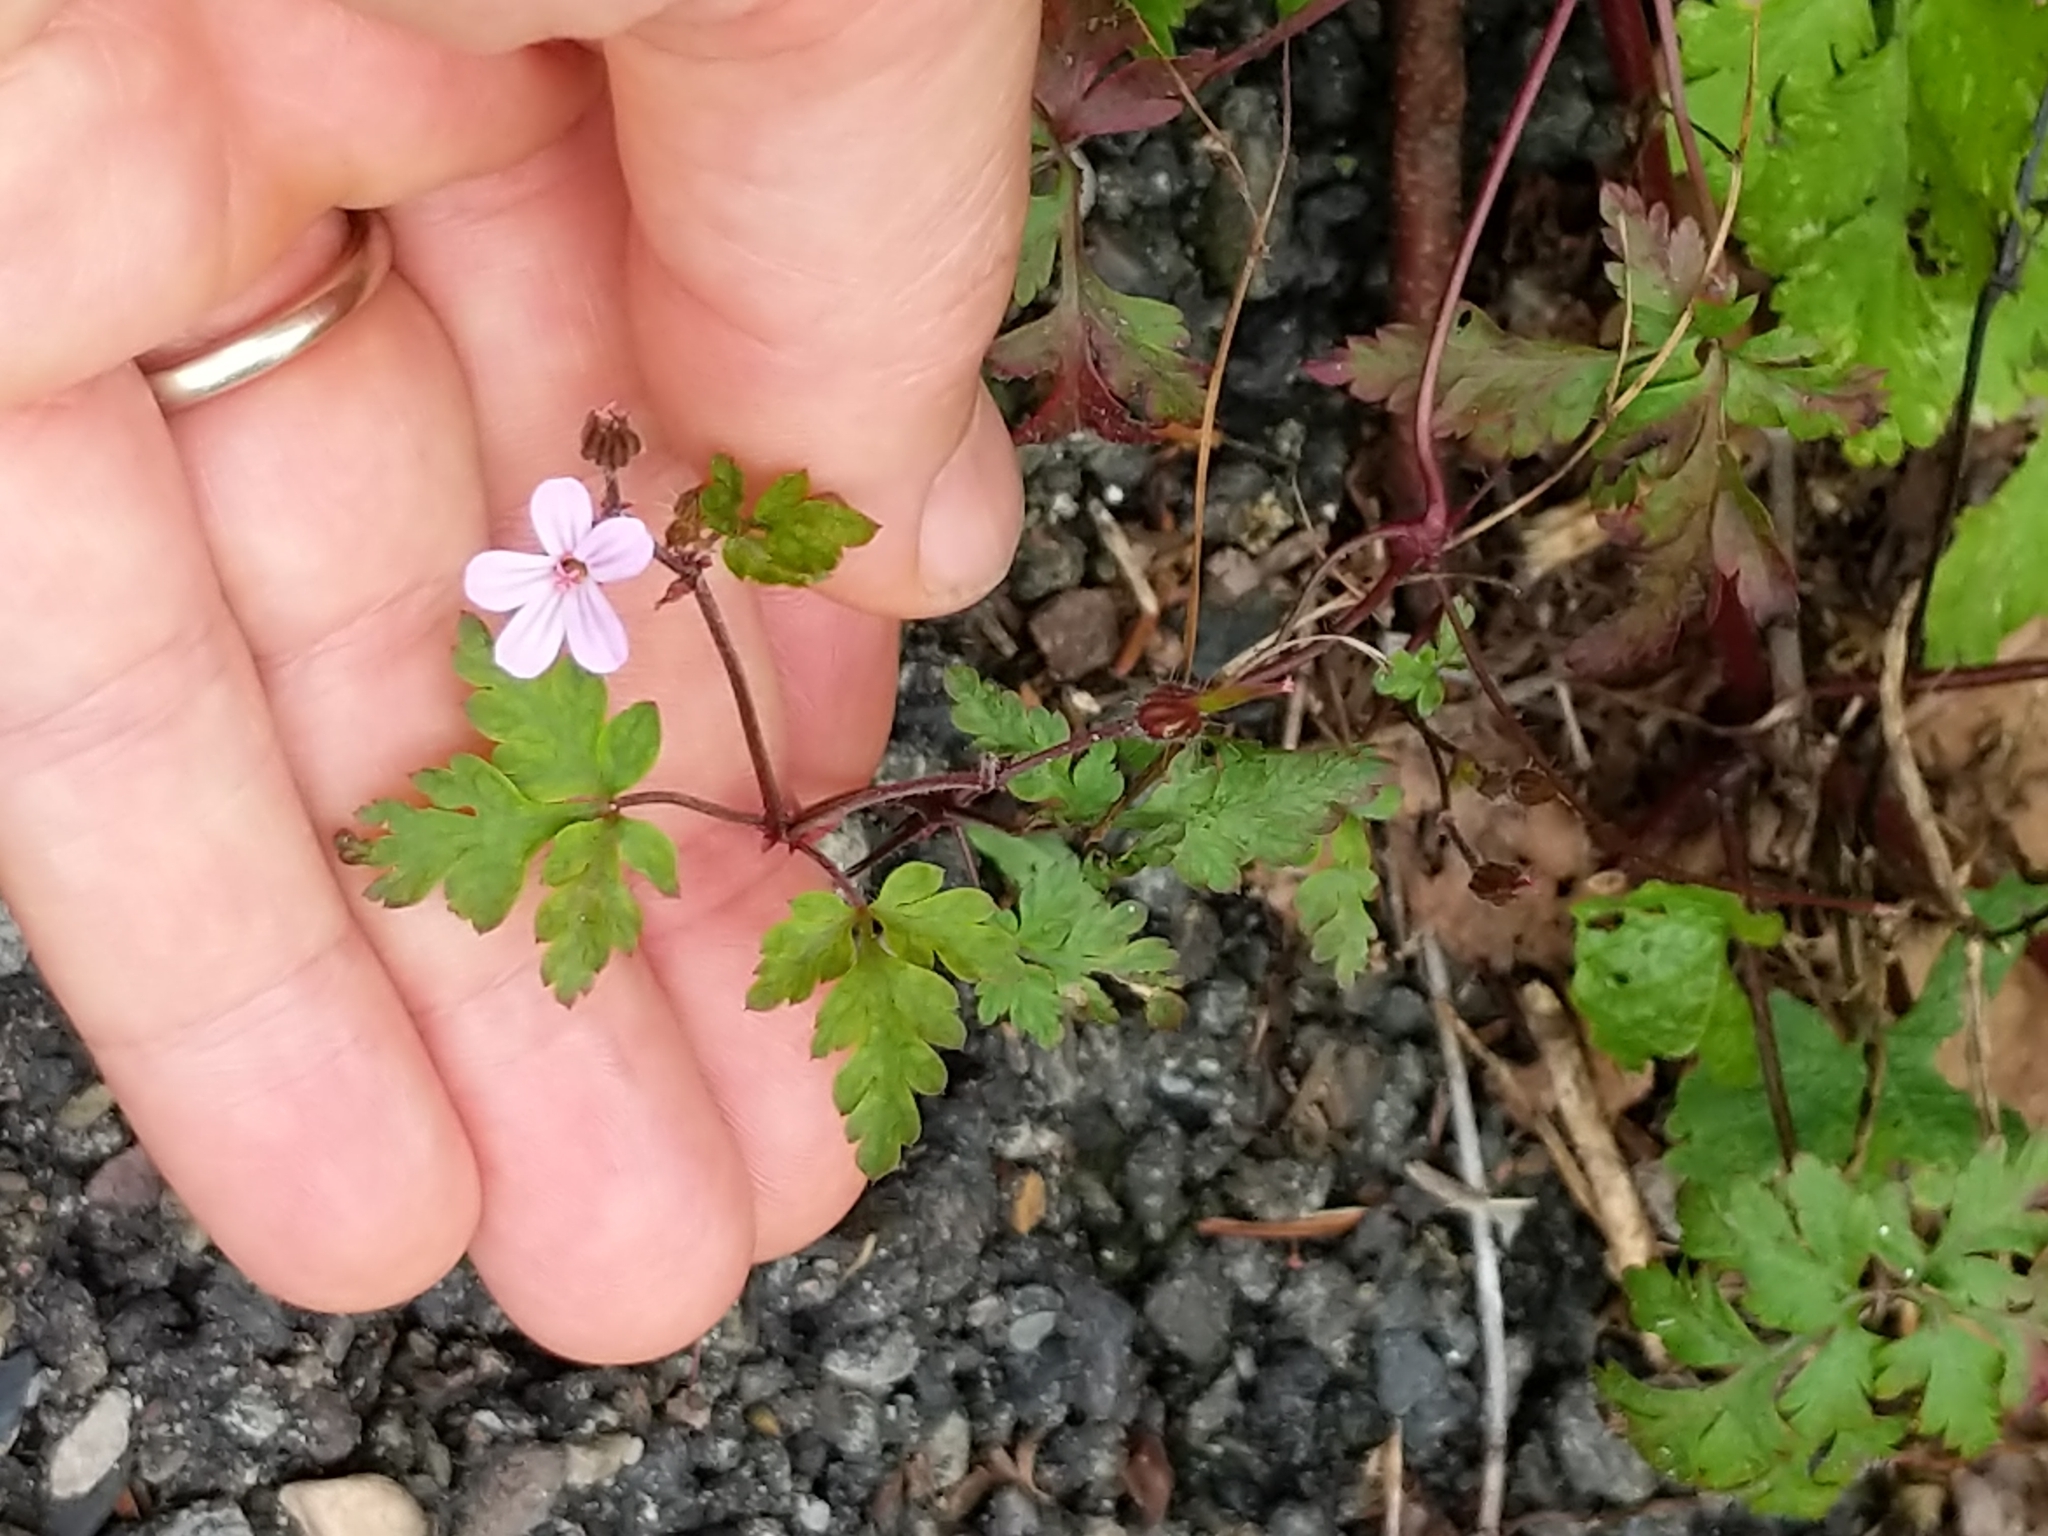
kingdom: Plantae
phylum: Tracheophyta
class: Magnoliopsida
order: Geraniales
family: Geraniaceae
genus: Geranium
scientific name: Geranium robertianum
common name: Herb-robert
